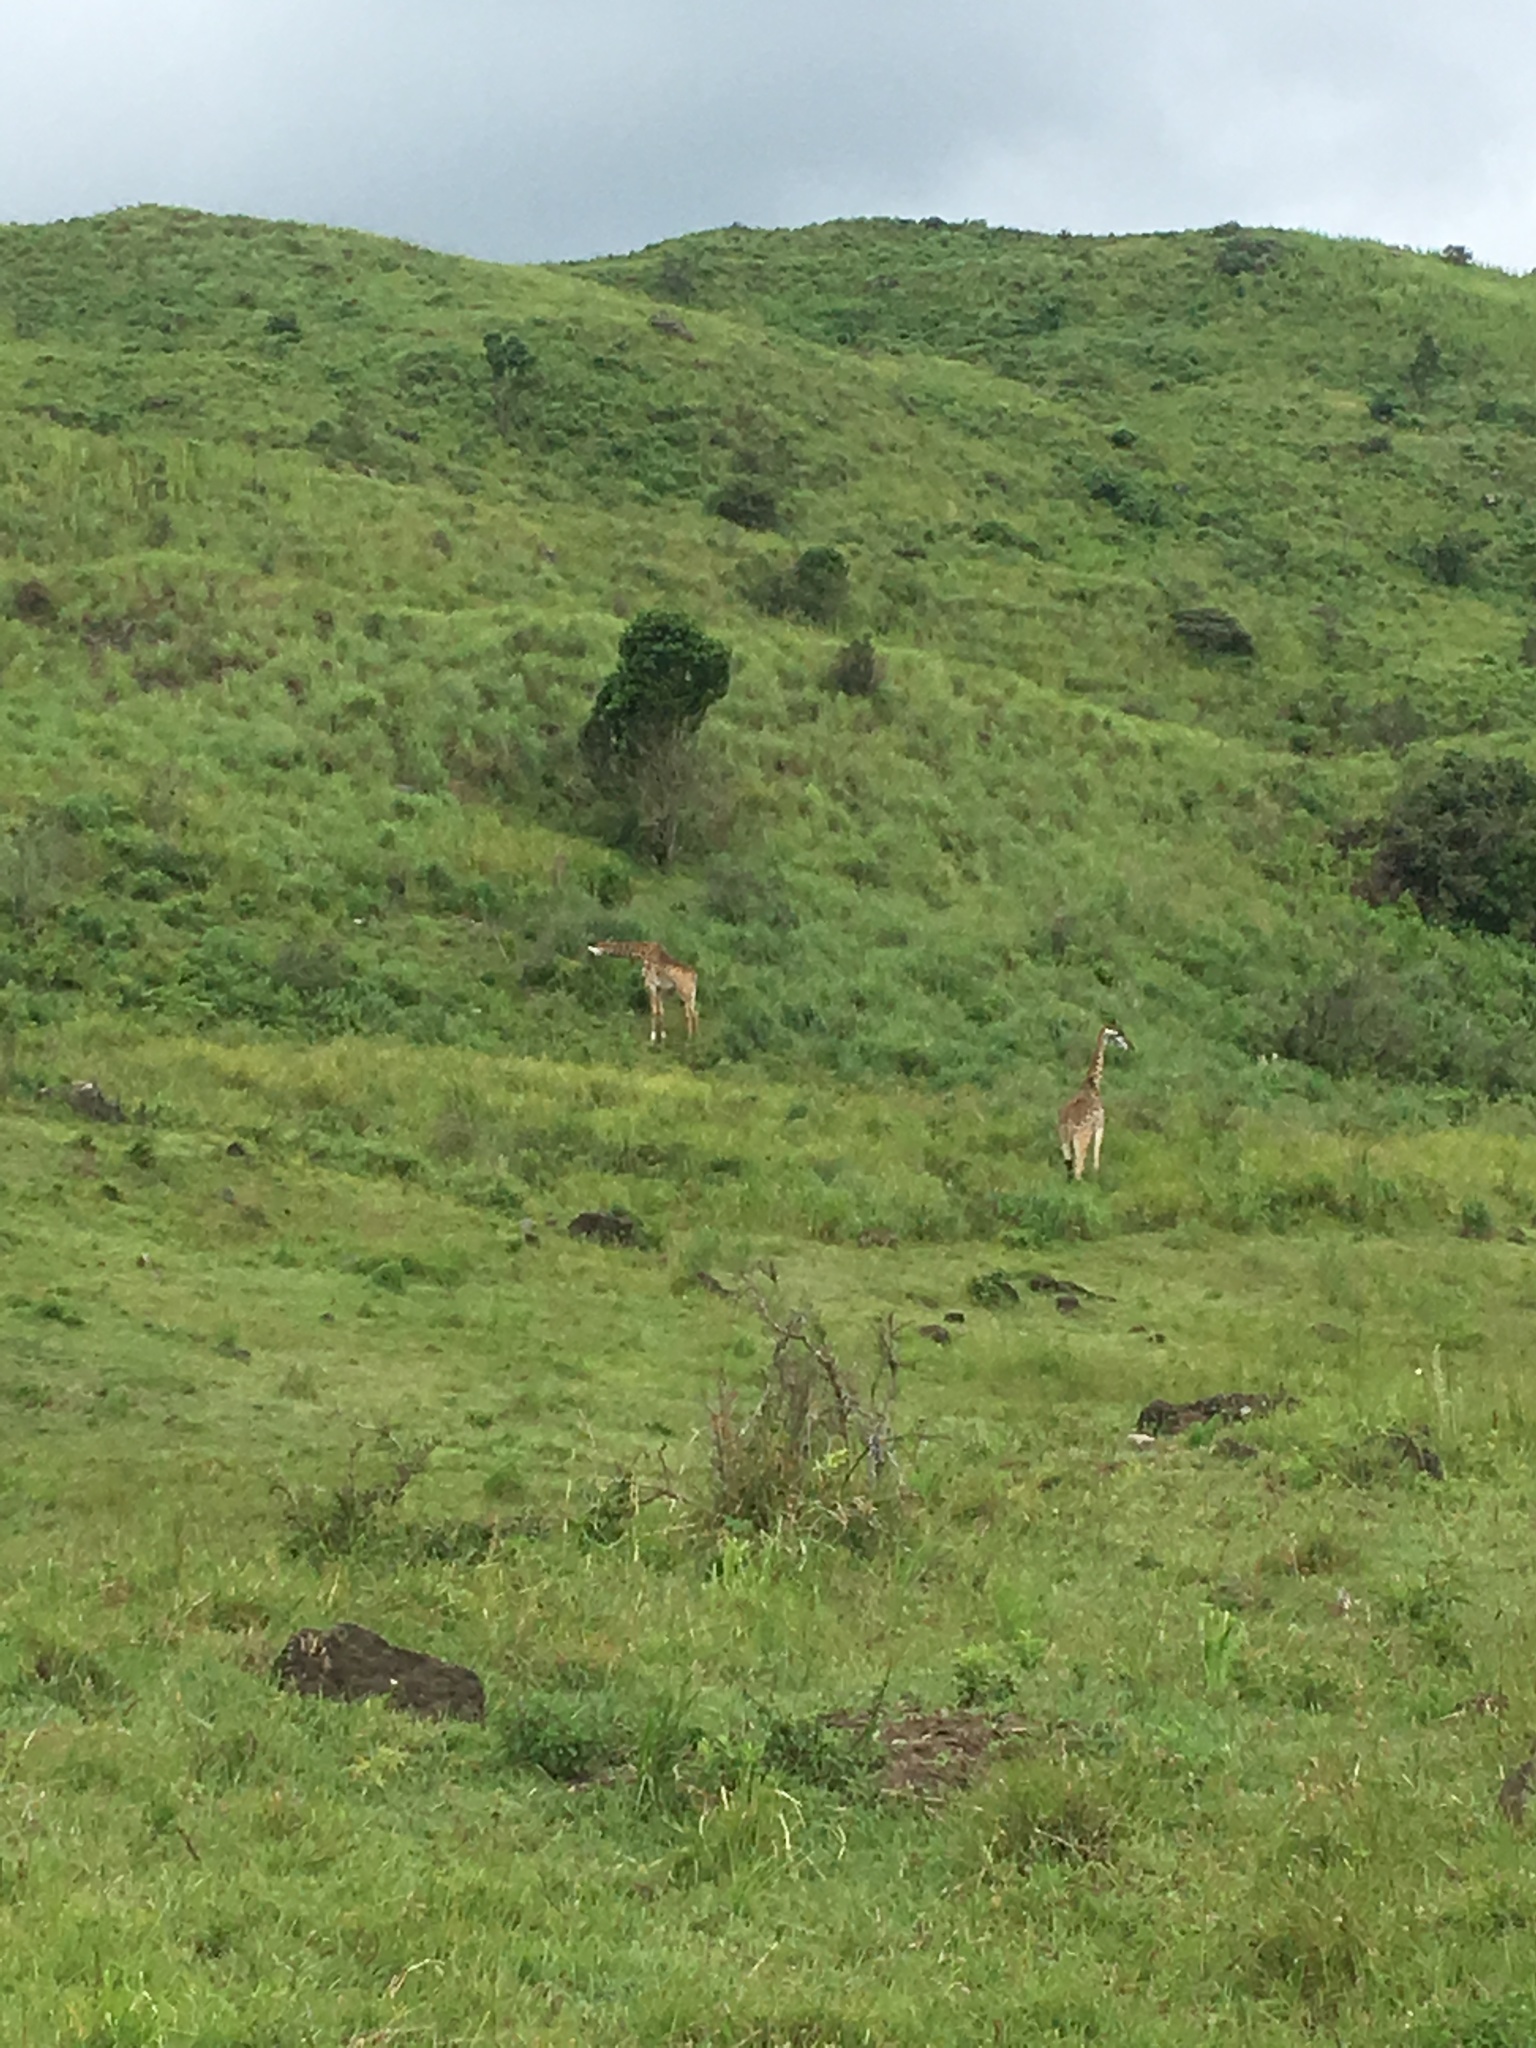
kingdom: Animalia
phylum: Chordata
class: Mammalia
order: Artiodactyla
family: Giraffidae
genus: Giraffa
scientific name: Giraffa tippelskirchi
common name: Masai giraffe
